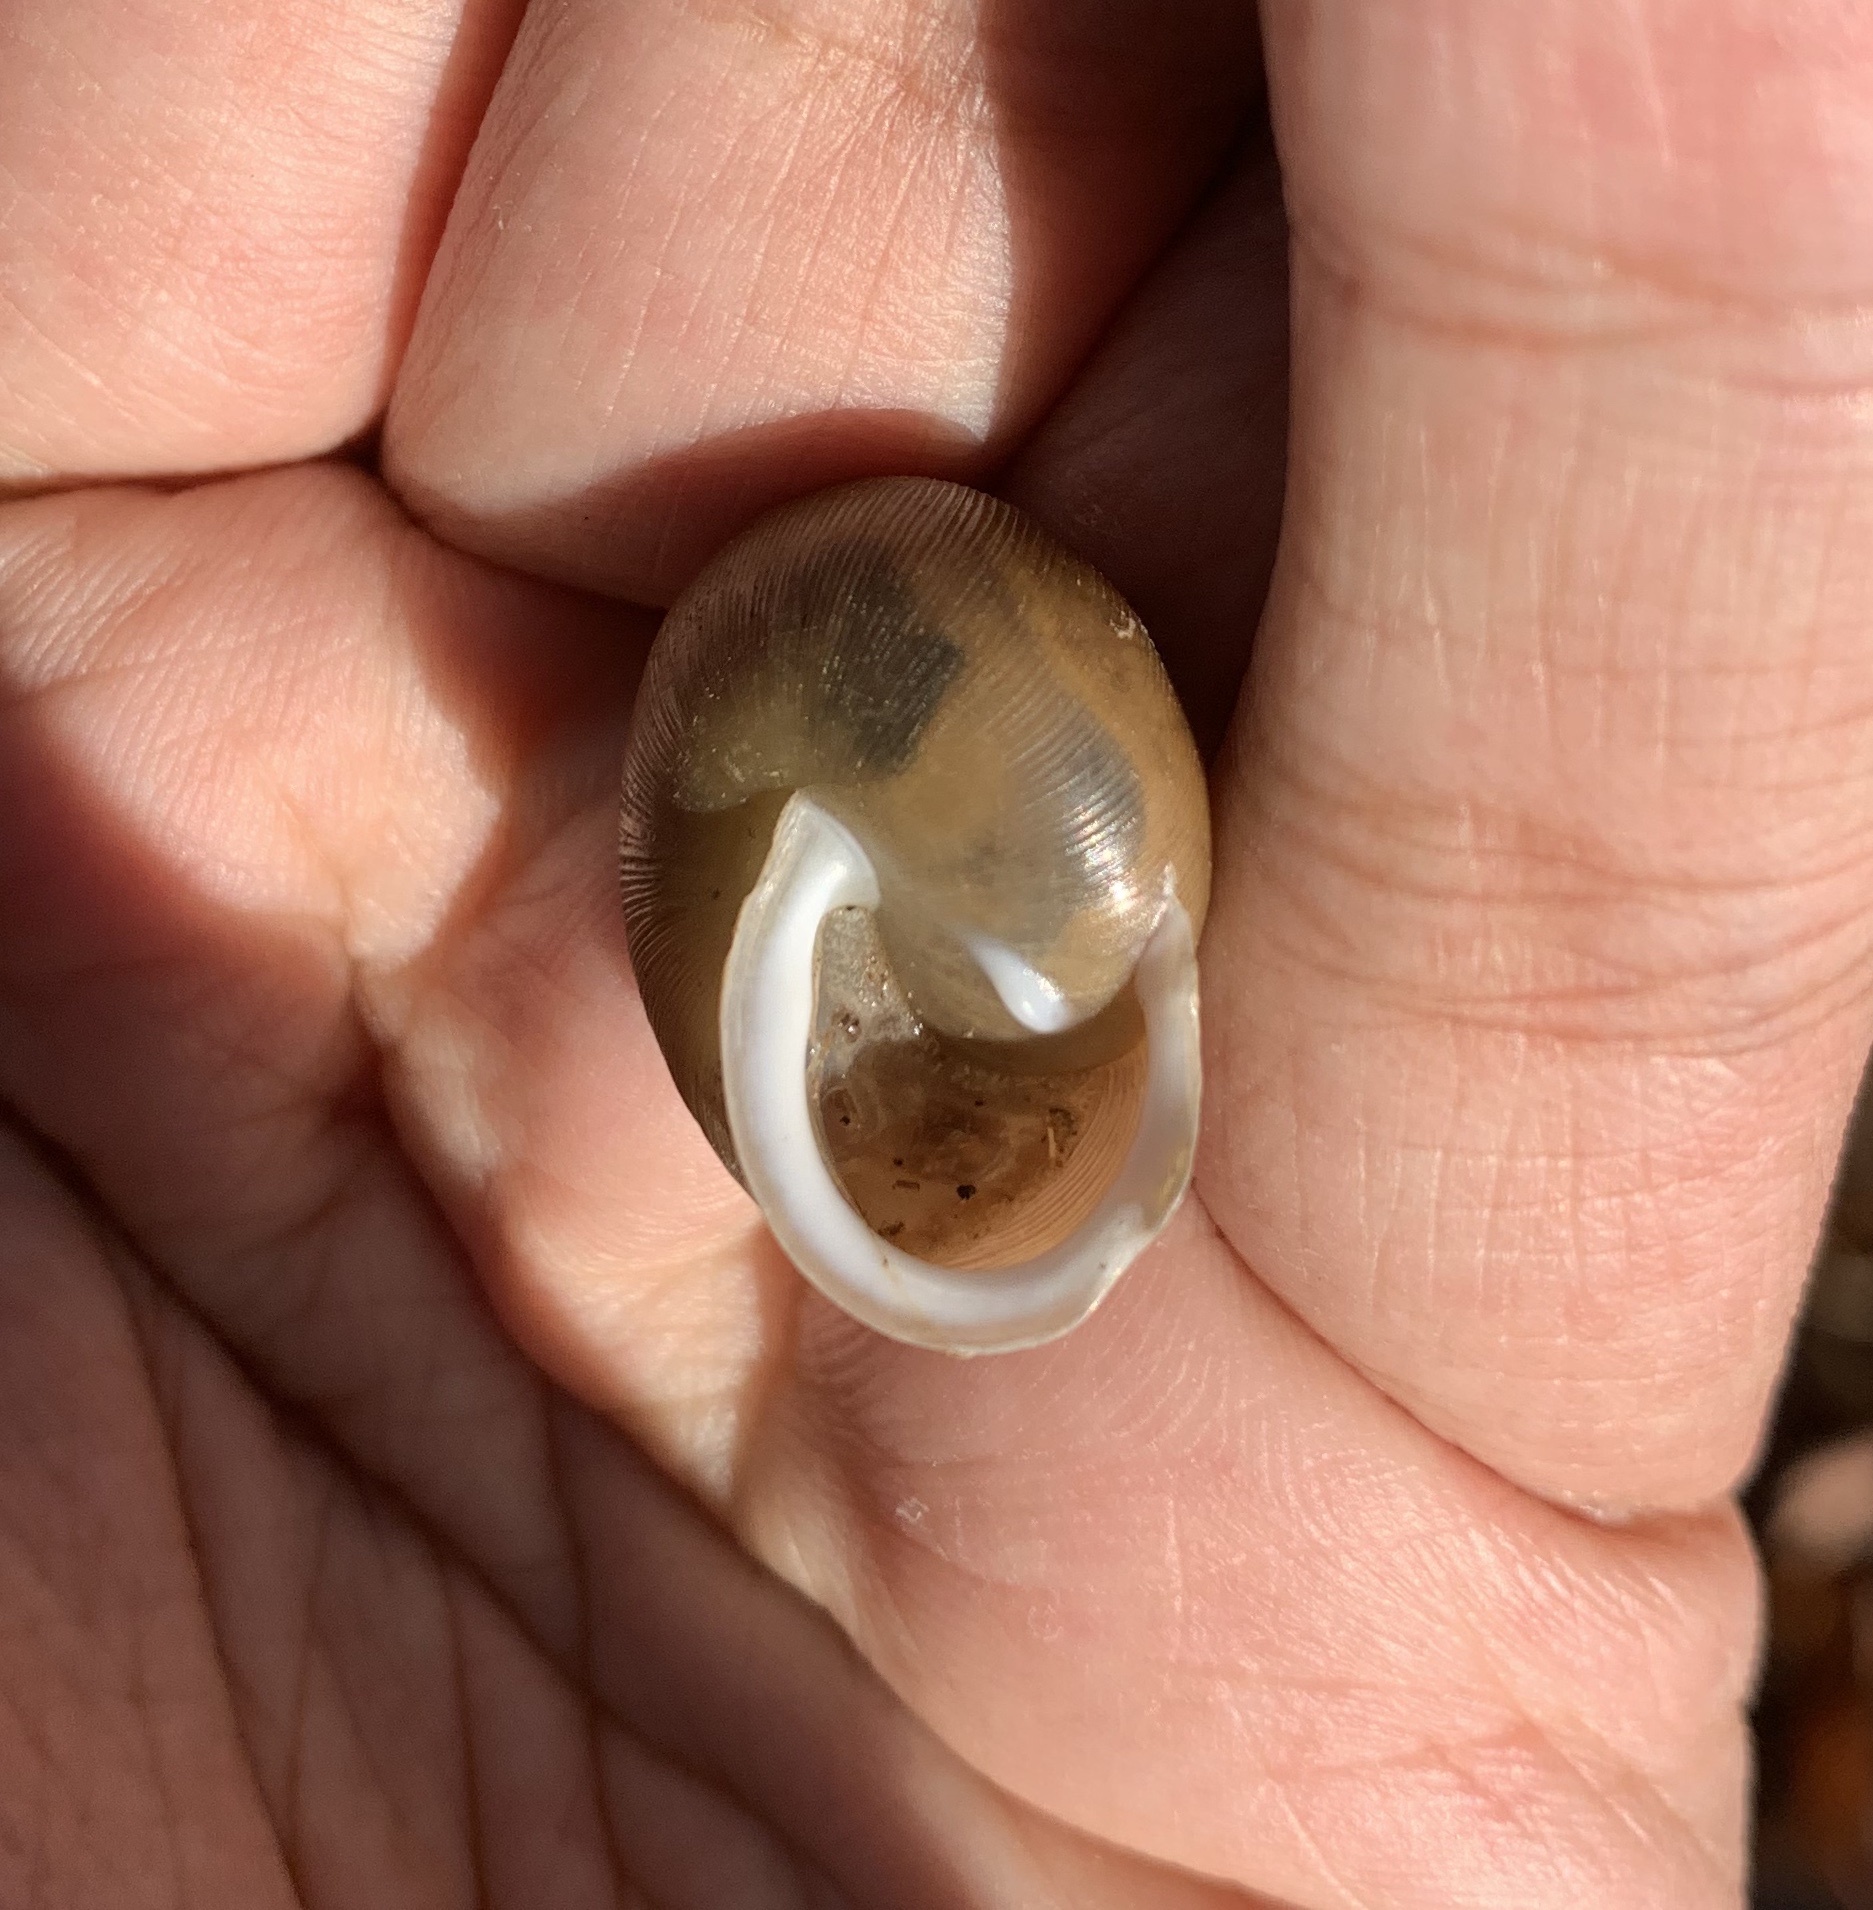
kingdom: Animalia
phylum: Mollusca
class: Gastropoda
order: Stylommatophora
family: Polygyridae
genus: Mesodon
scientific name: Mesodon thyroidus
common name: White-lip globe
